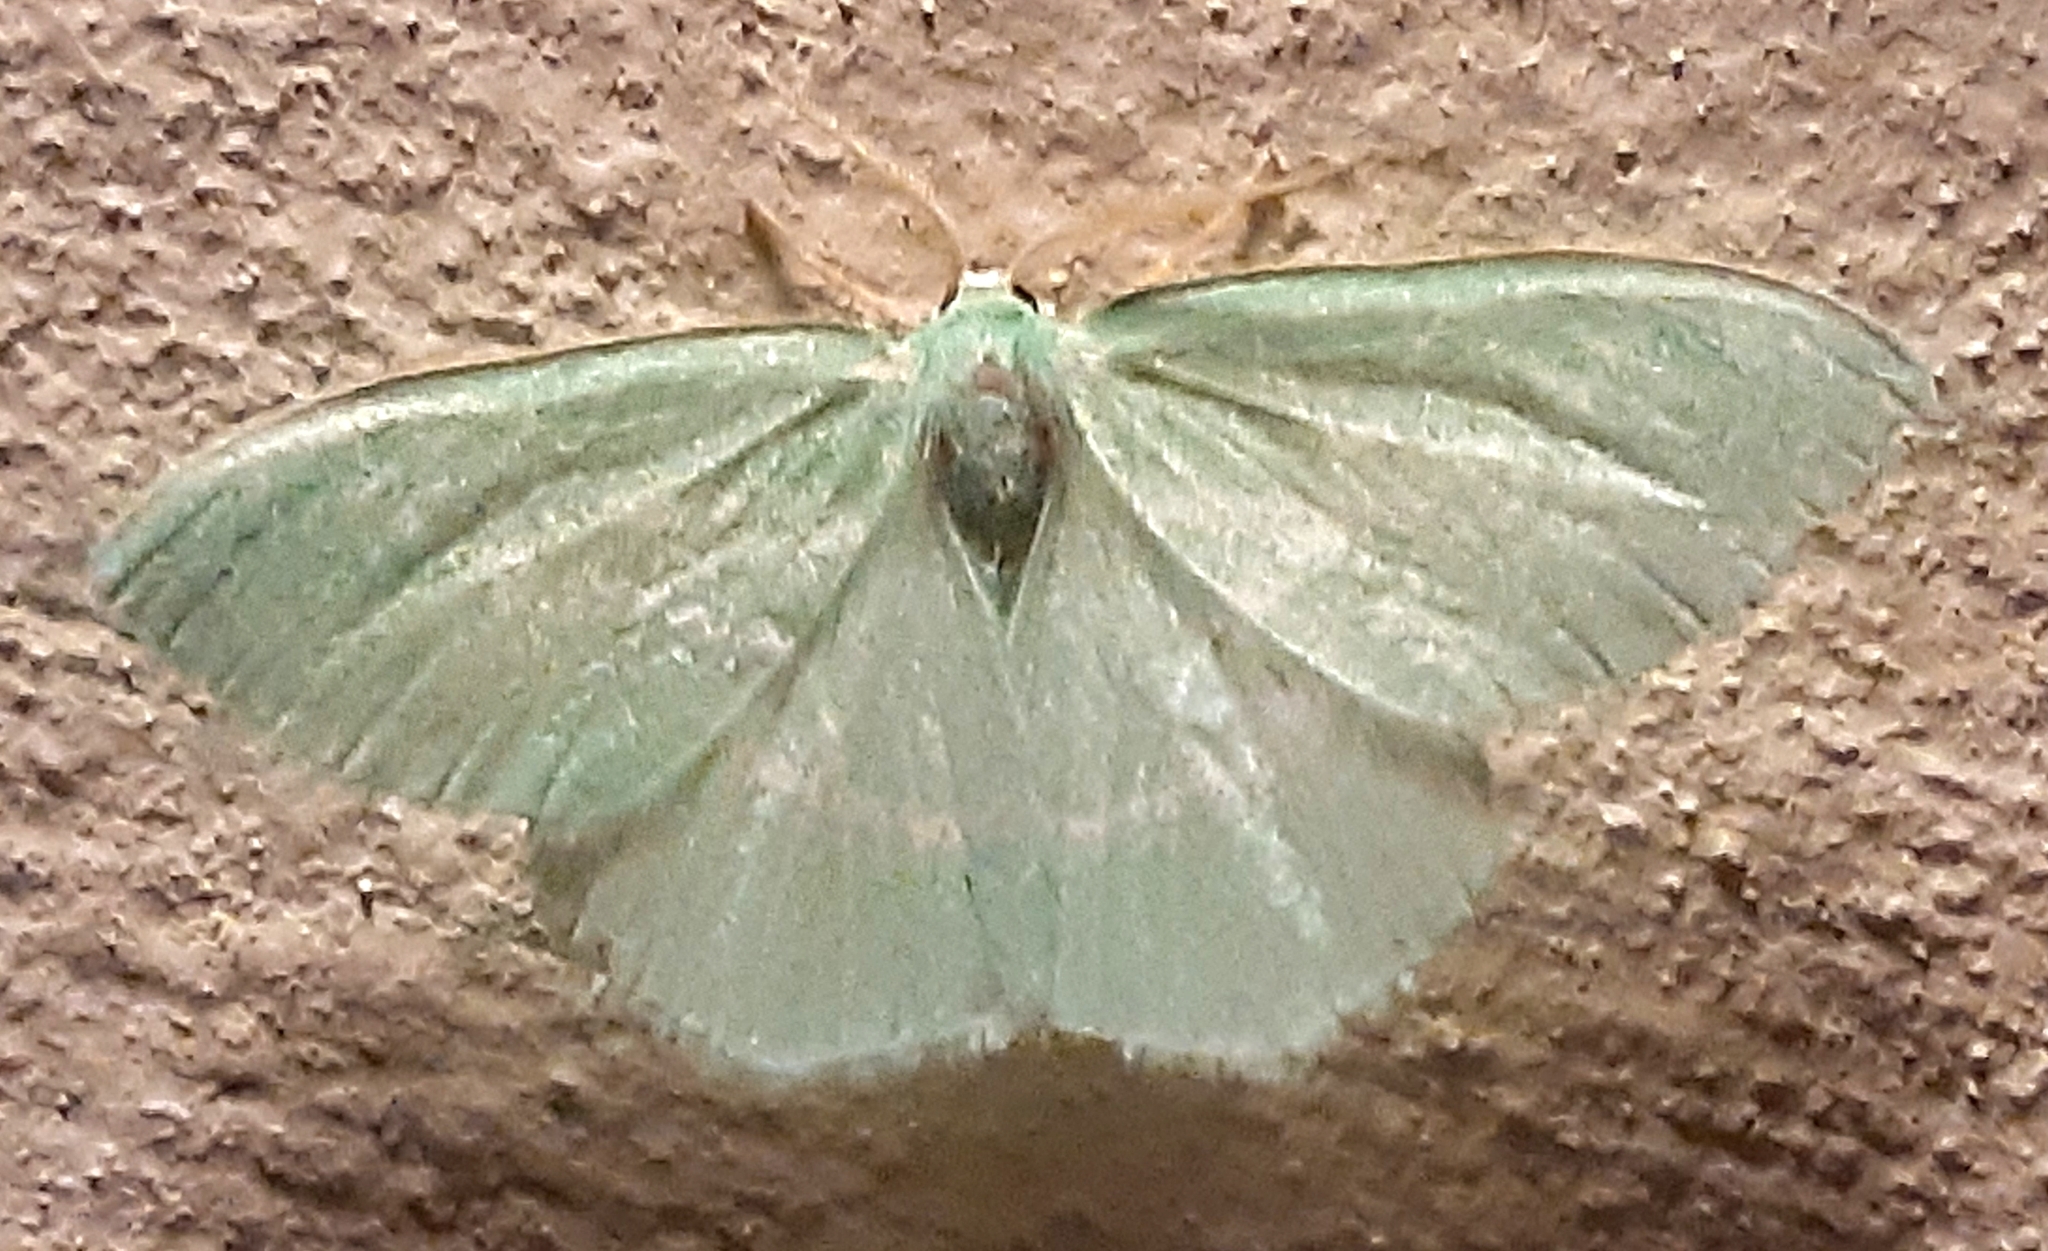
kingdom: Animalia
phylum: Arthropoda
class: Insecta
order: Lepidoptera
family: Geometridae
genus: Hemistola
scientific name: Hemistola chrysoprasaria
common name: Small emerald
